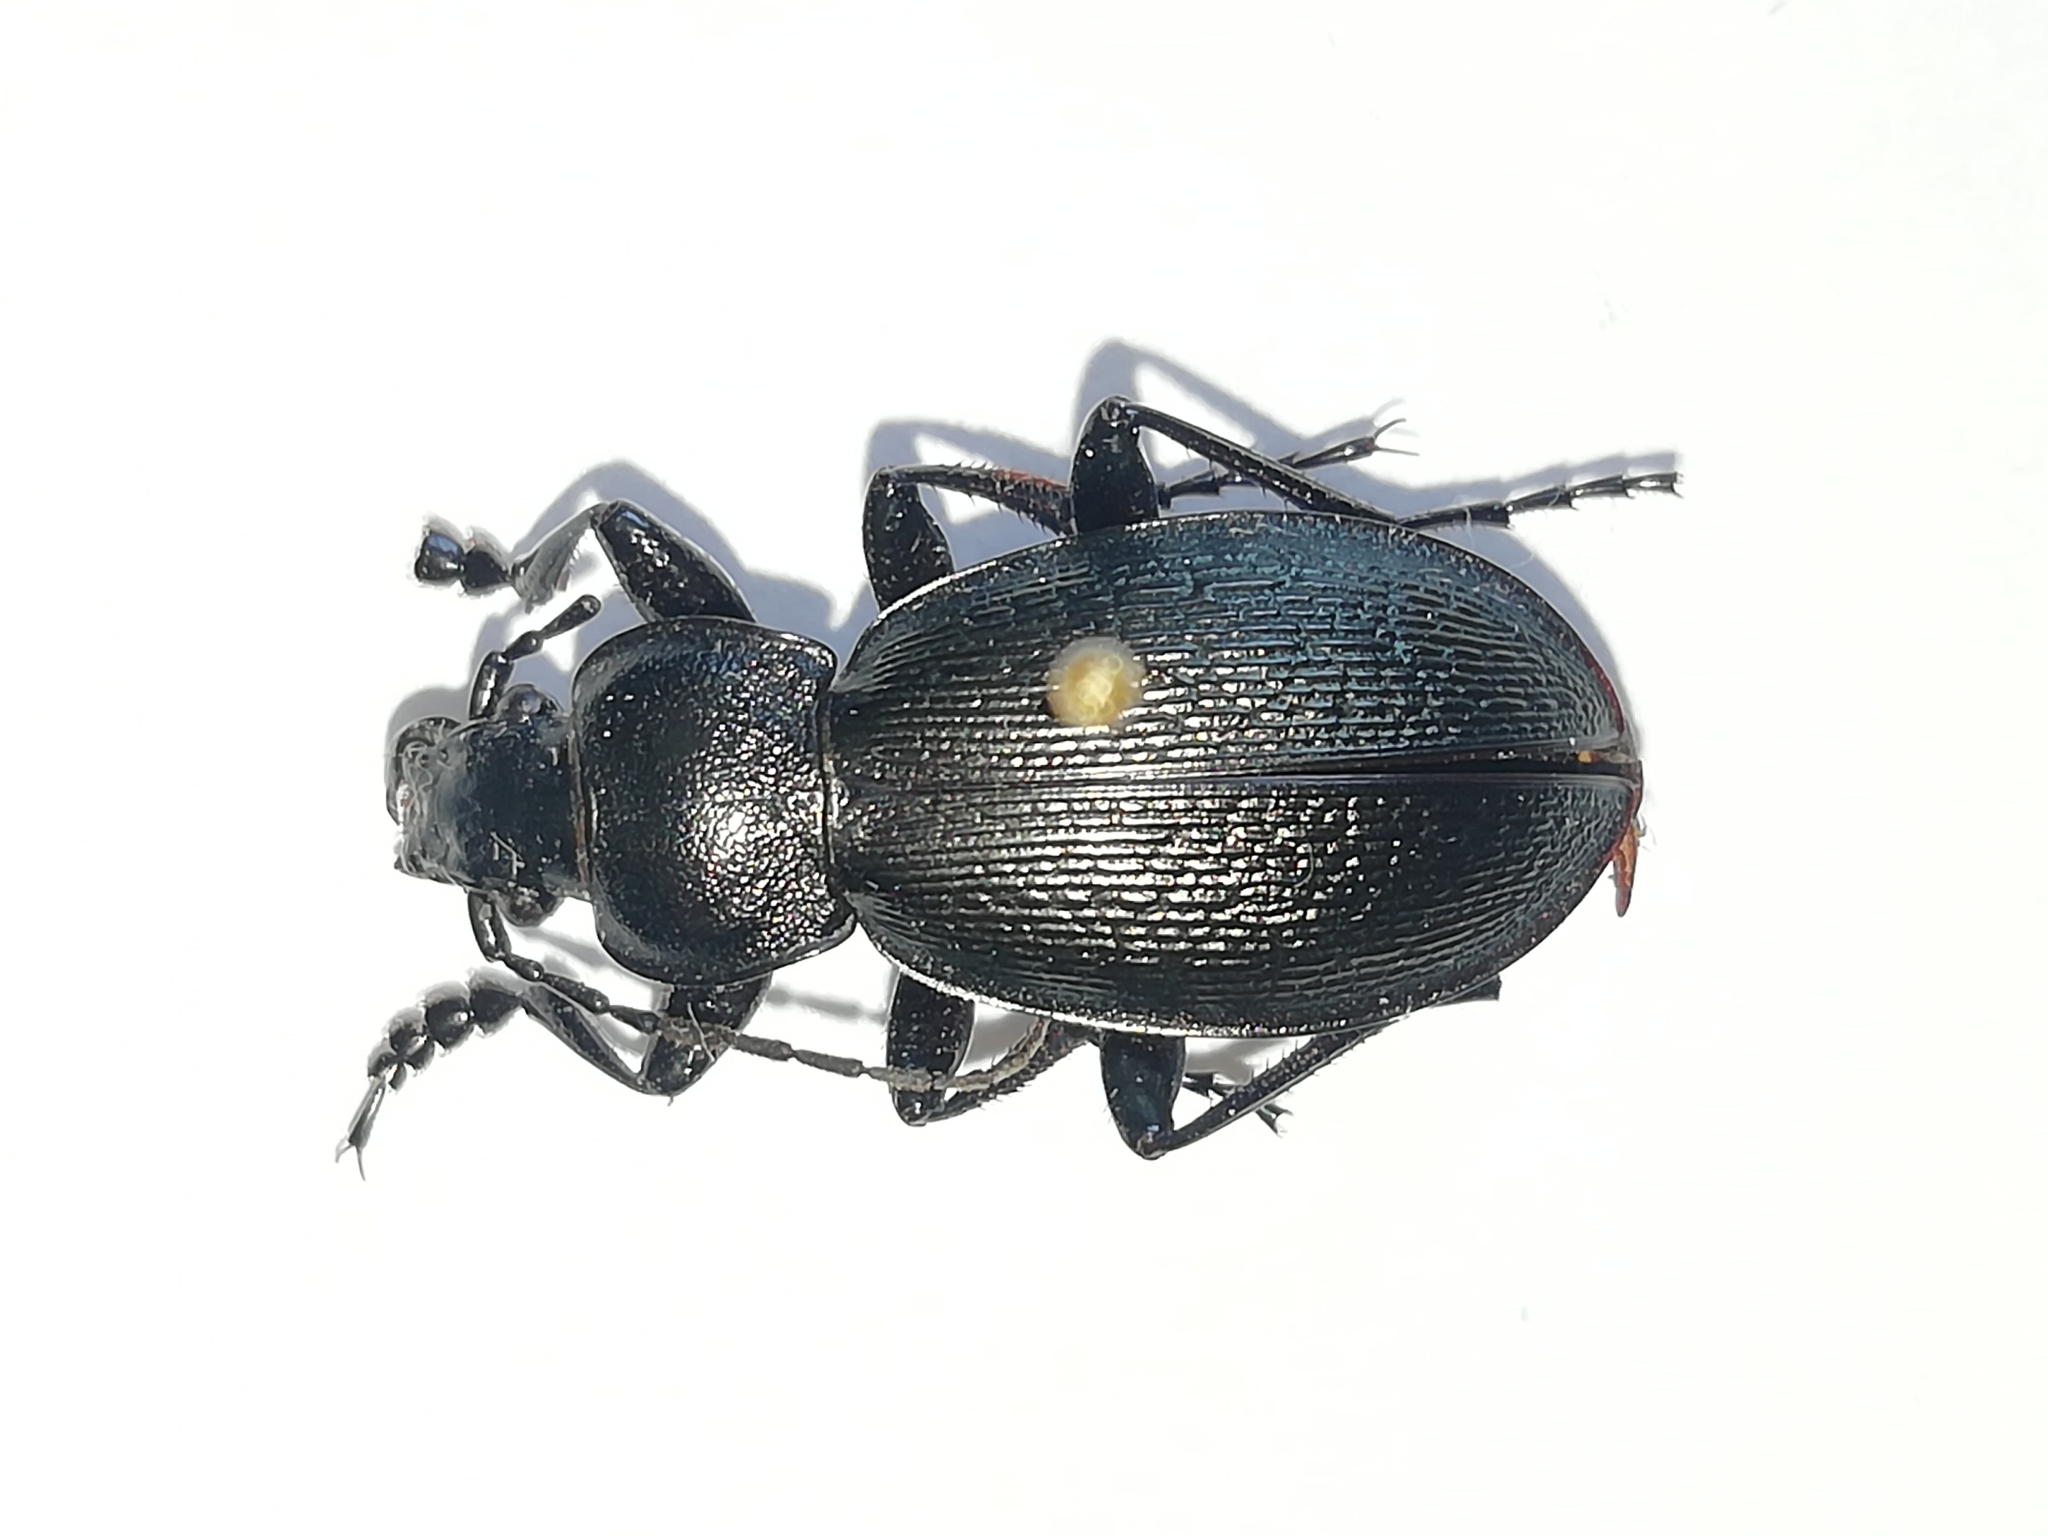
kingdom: Animalia
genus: Morphocarabus
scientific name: Morphocarabus
